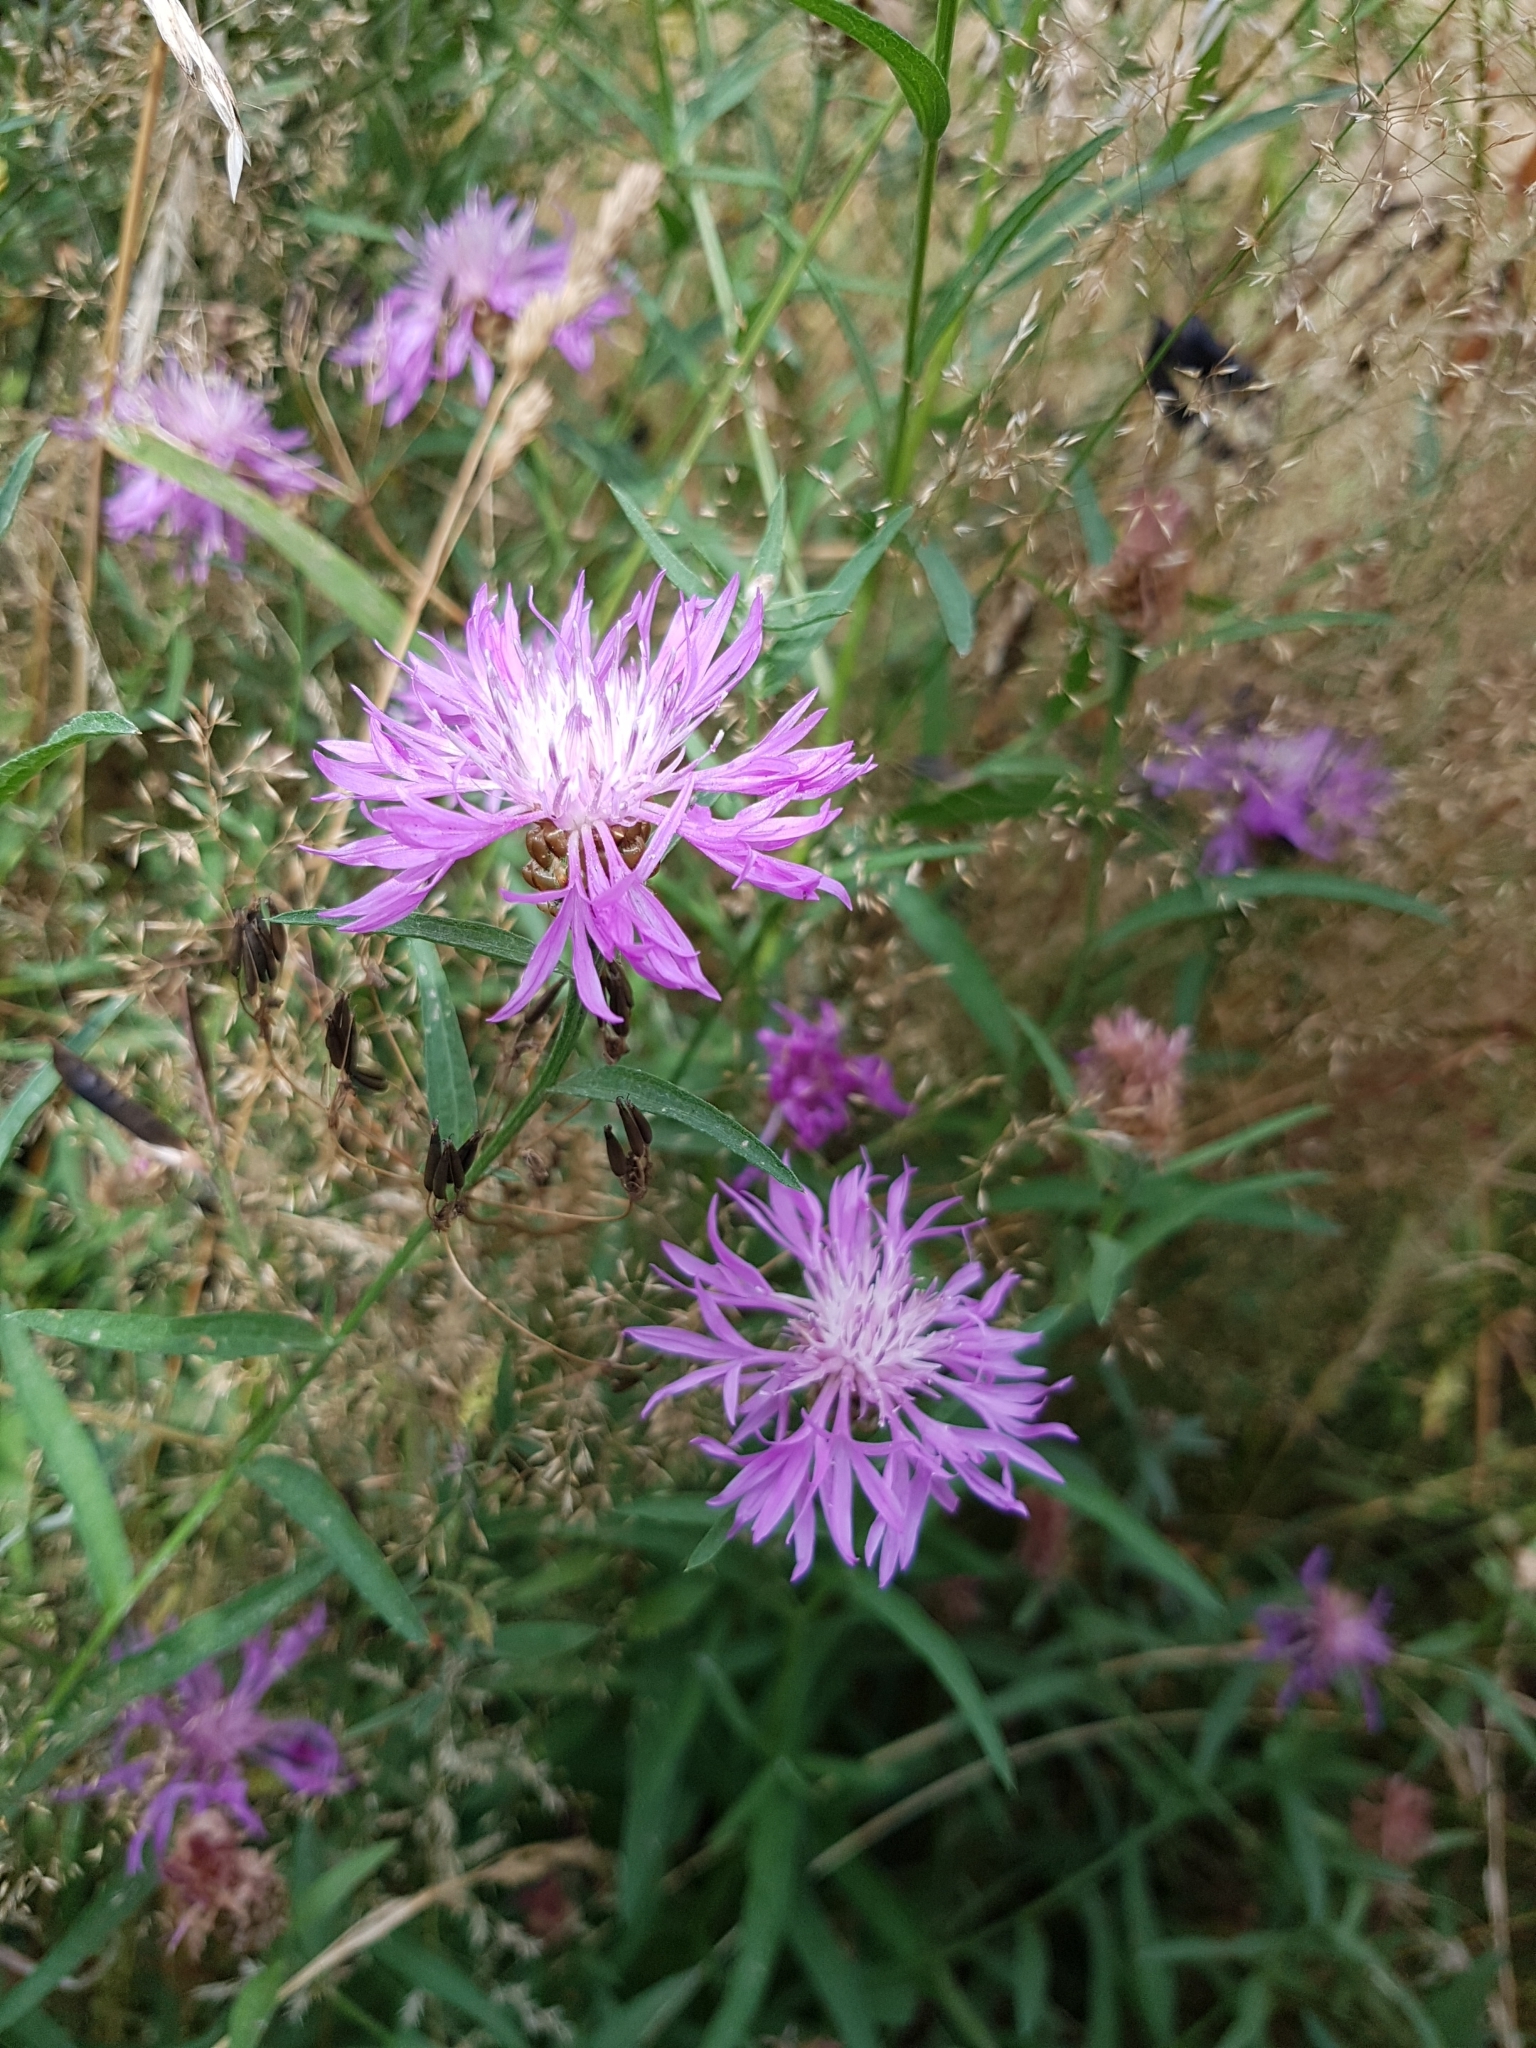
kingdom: Plantae
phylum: Tracheophyta
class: Magnoliopsida
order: Asterales
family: Asteraceae
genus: Centaurea
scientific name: Centaurea jacea
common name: Brown knapweed
